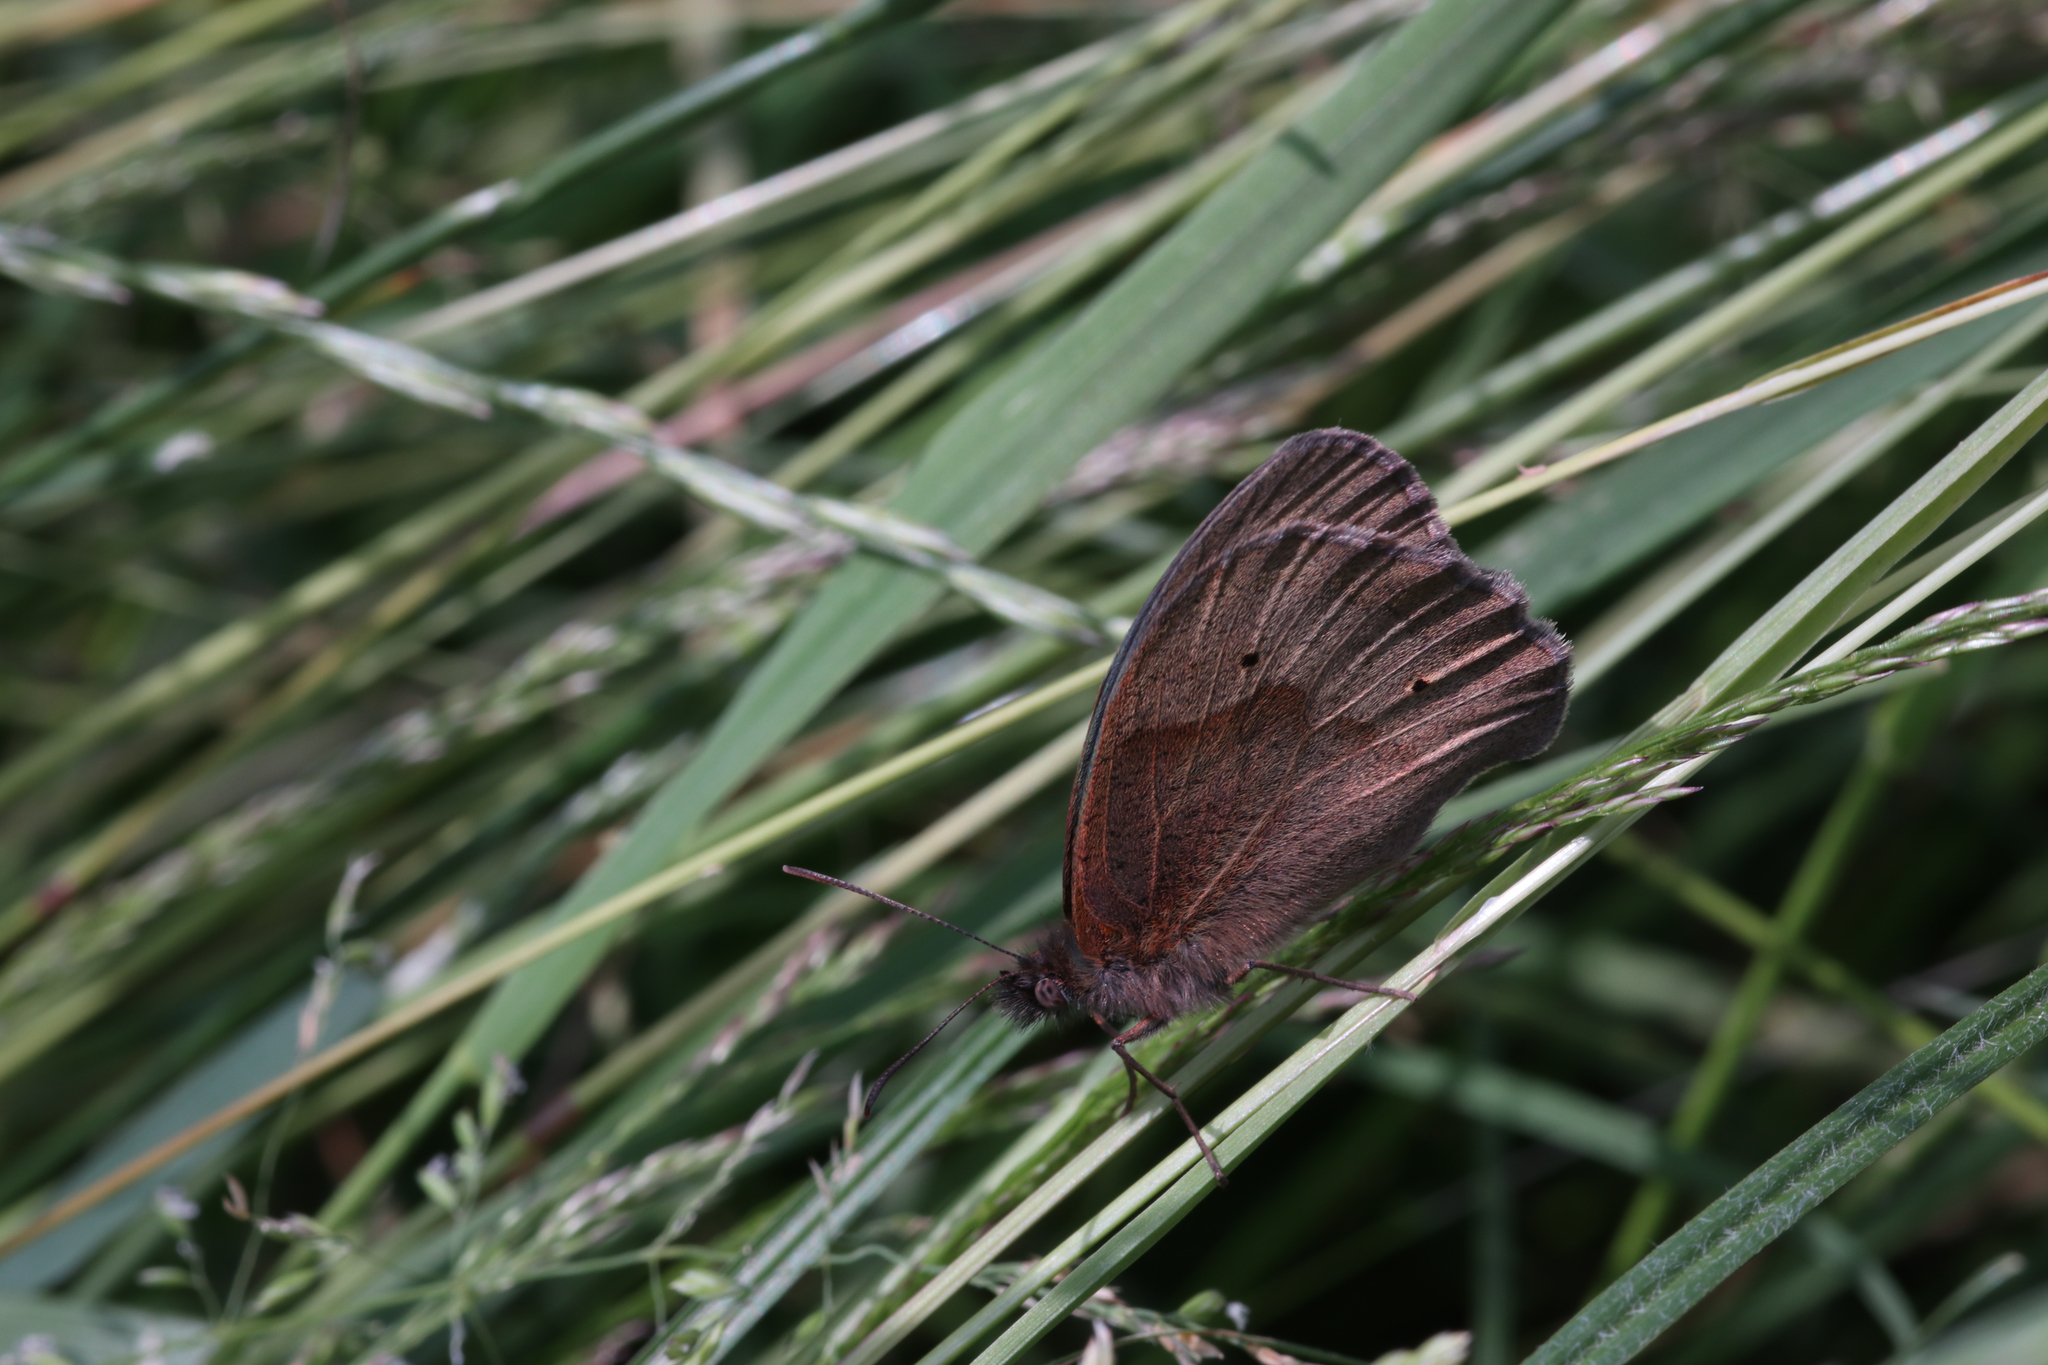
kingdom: Animalia
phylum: Arthropoda
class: Insecta
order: Lepidoptera
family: Nymphalidae
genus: Maniola
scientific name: Maniola jurtina
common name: Meadow brown
